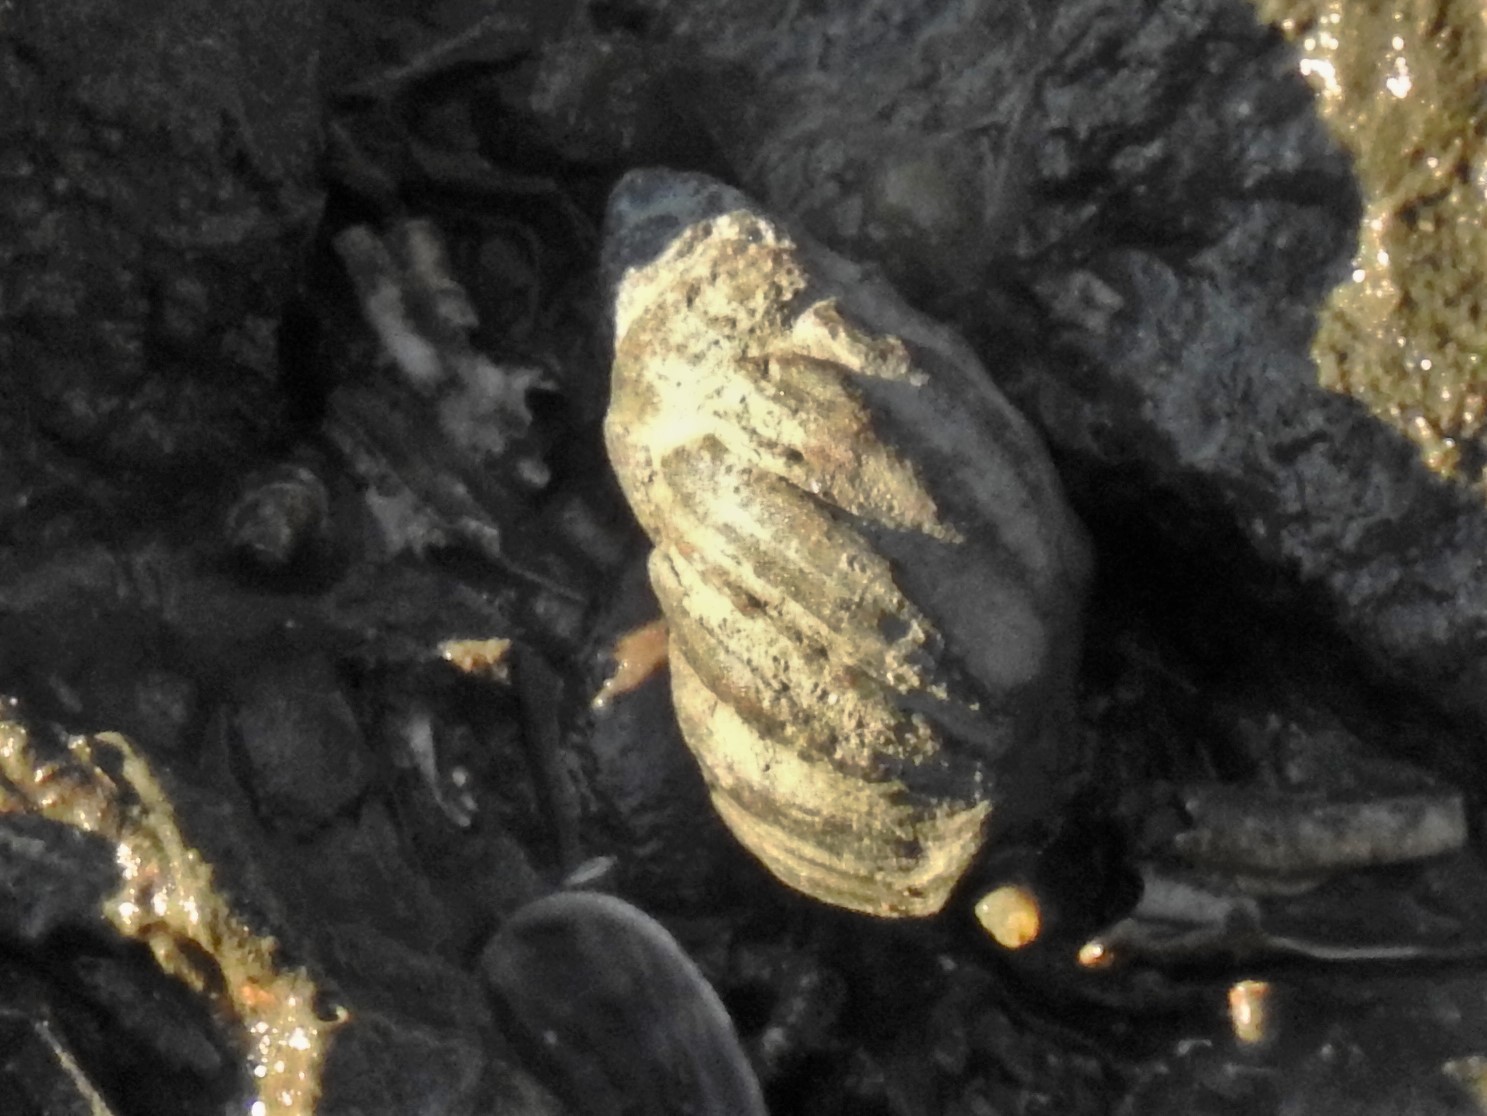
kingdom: Animalia
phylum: Mollusca
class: Gastropoda
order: Neogastropoda
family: Nassariidae
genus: Ilyanassa
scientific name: Ilyanassa obsoleta
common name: Eastern mudsnail
